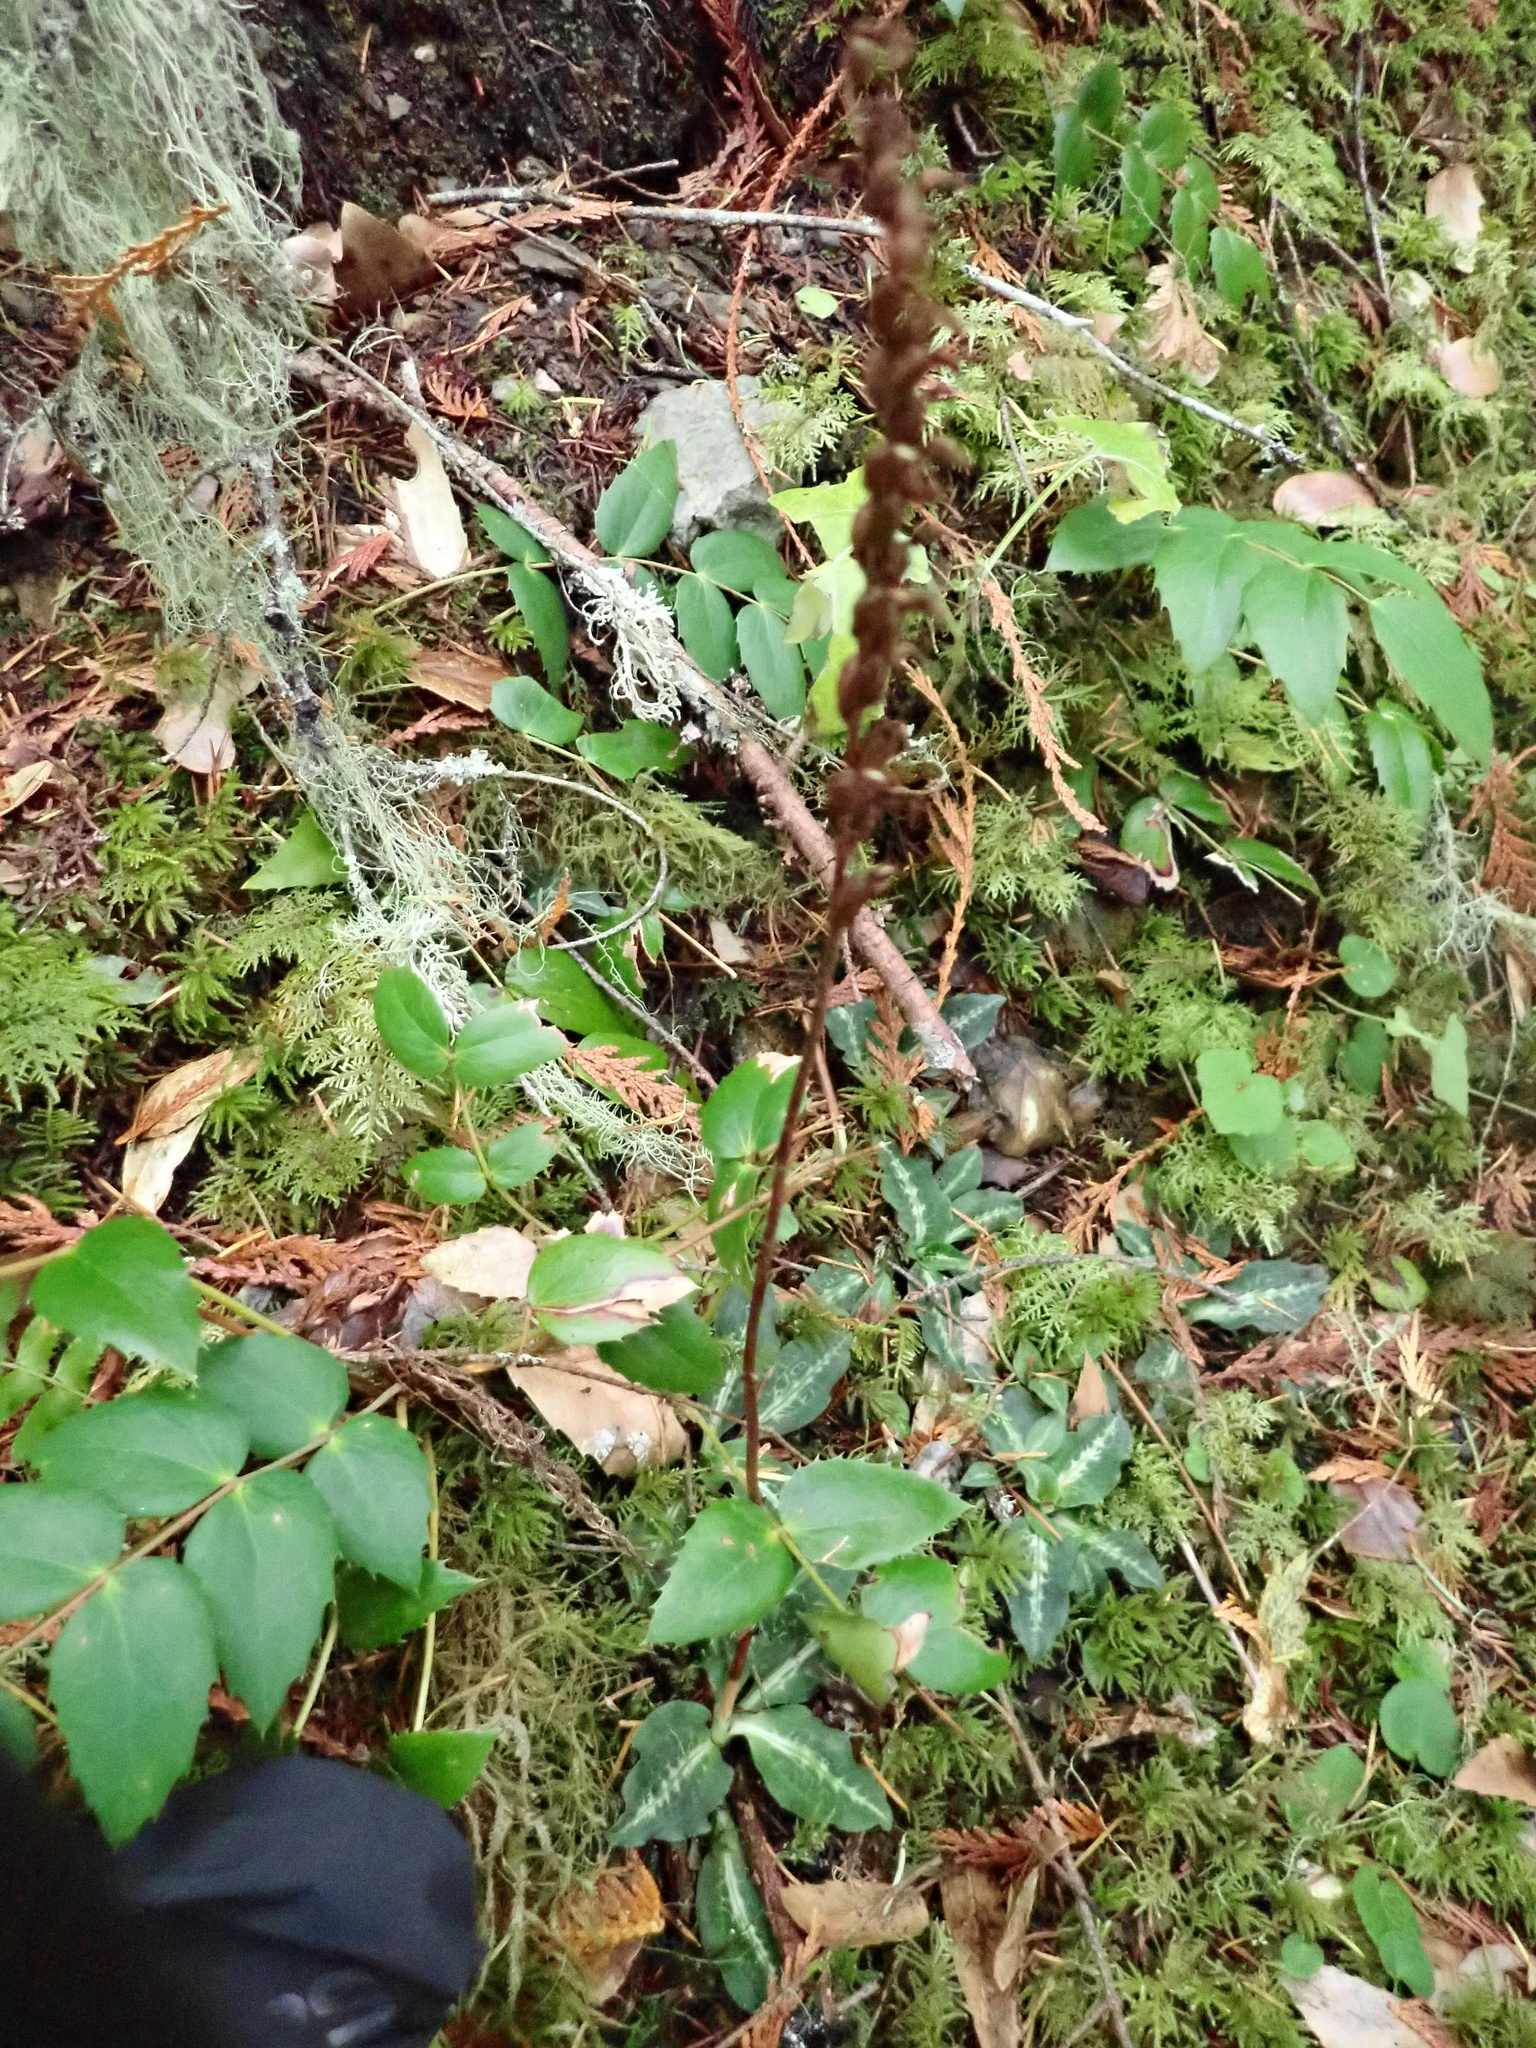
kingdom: Plantae
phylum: Tracheophyta
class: Liliopsida
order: Asparagales
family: Orchidaceae
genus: Goodyera
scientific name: Goodyera oblongifolia
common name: Giant rattlesnake-plantain
